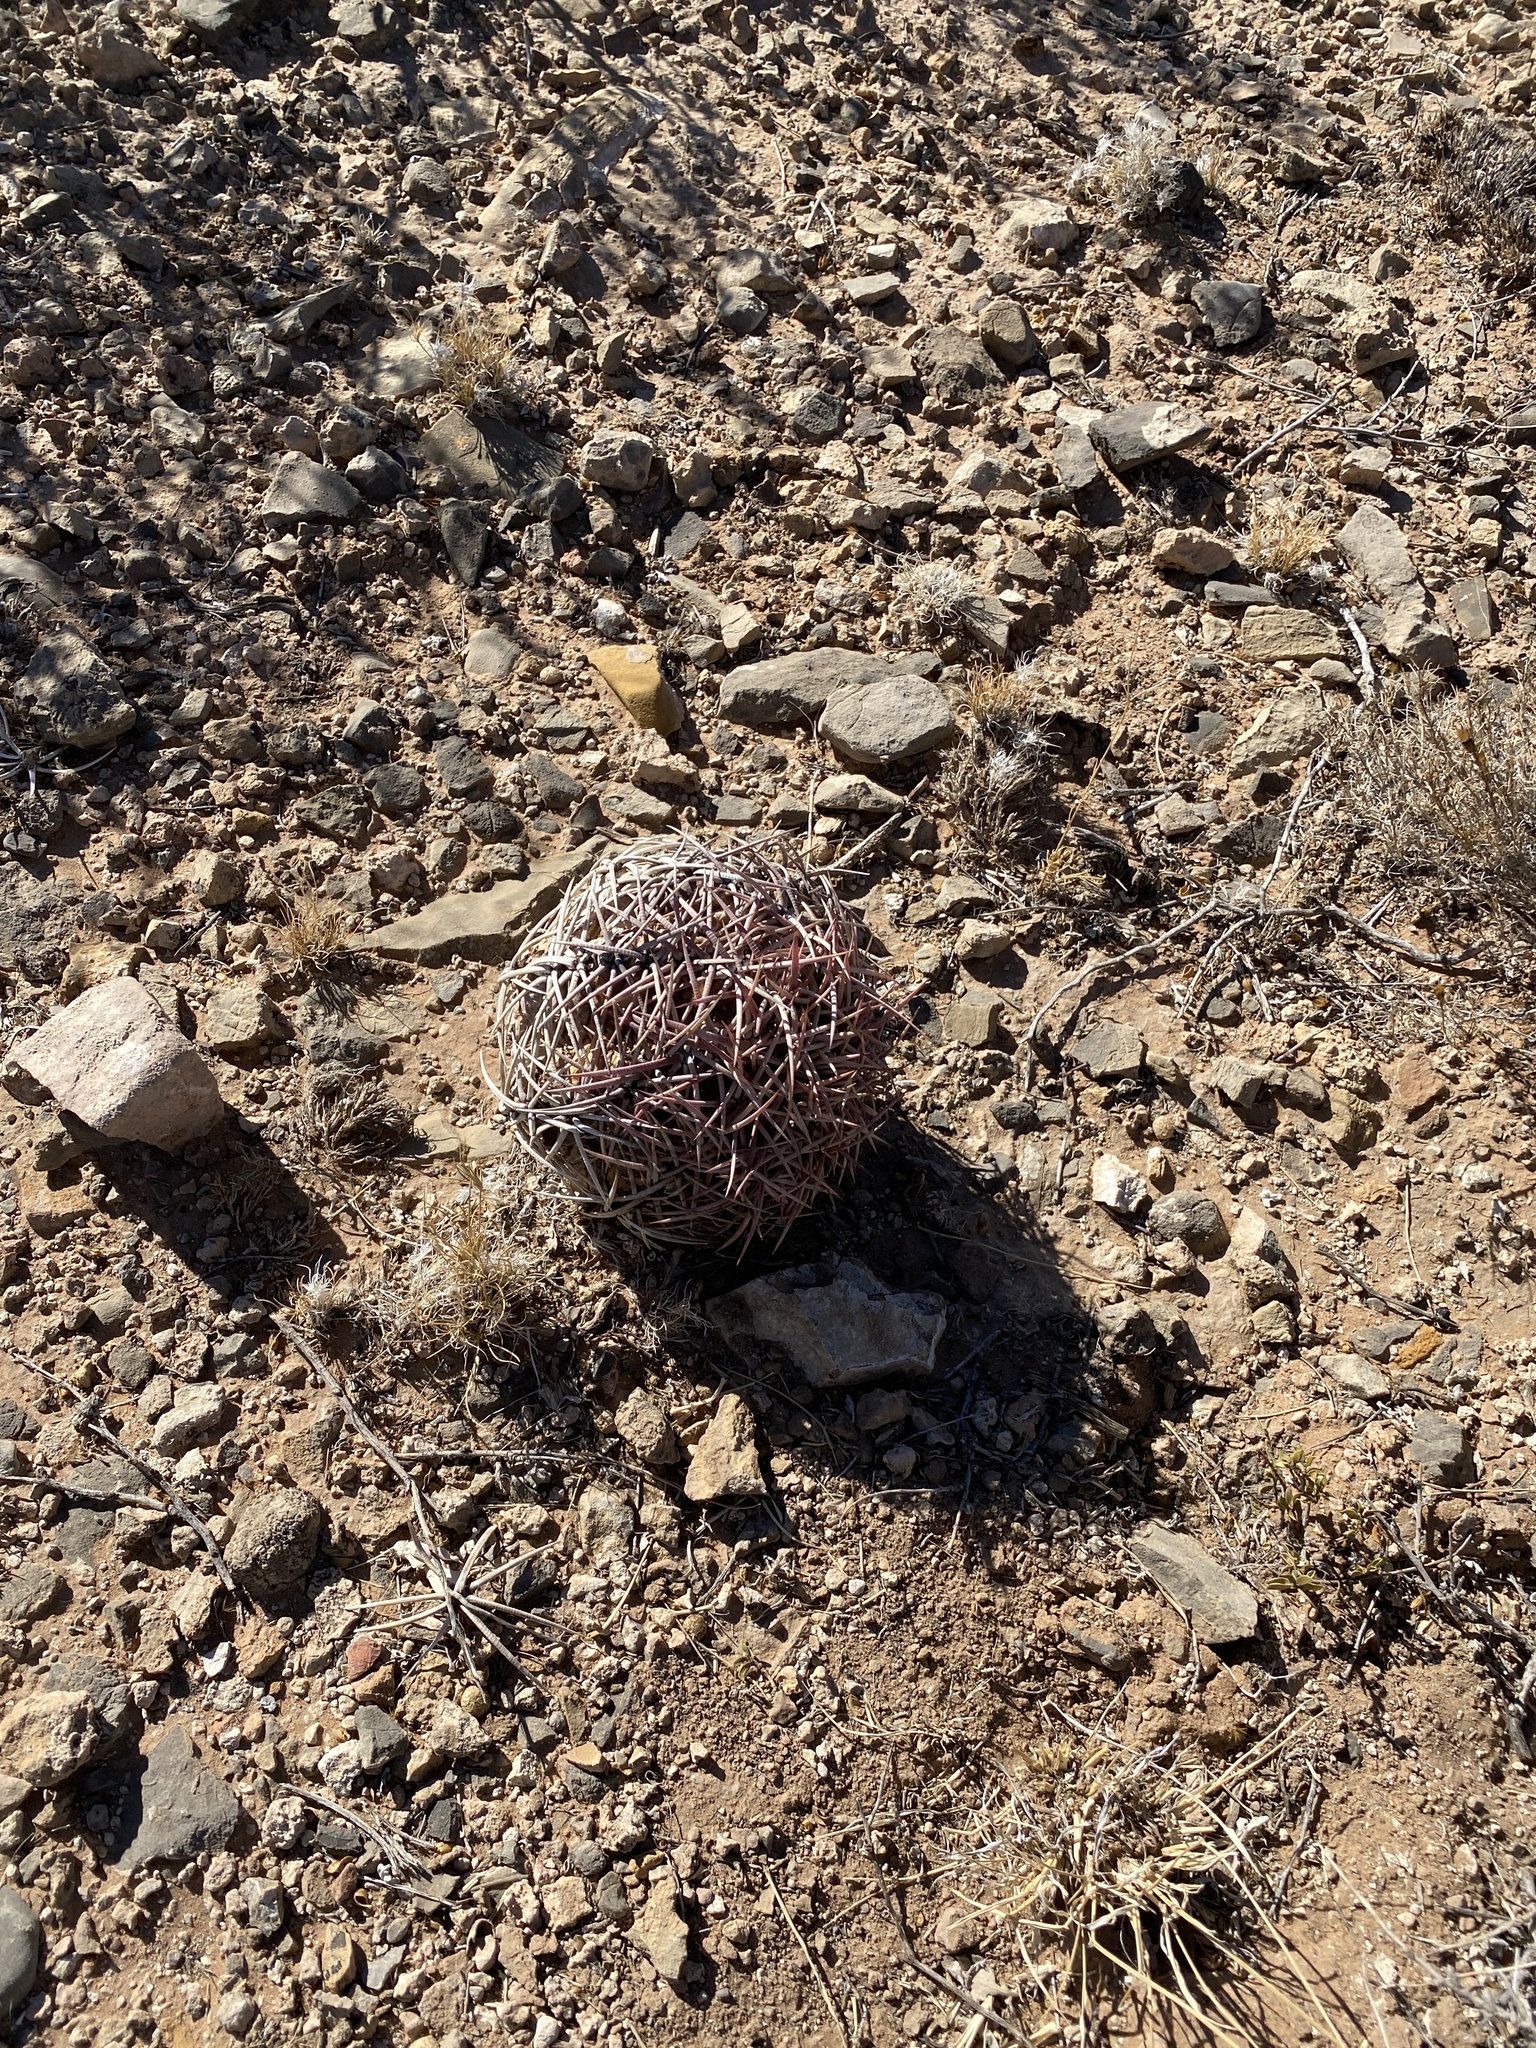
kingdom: Plantae
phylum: Tracheophyta
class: Magnoliopsida
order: Caryophyllales
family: Cactaceae
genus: Echinocactus
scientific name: Echinocactus horizonthalonius
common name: Devilshead
